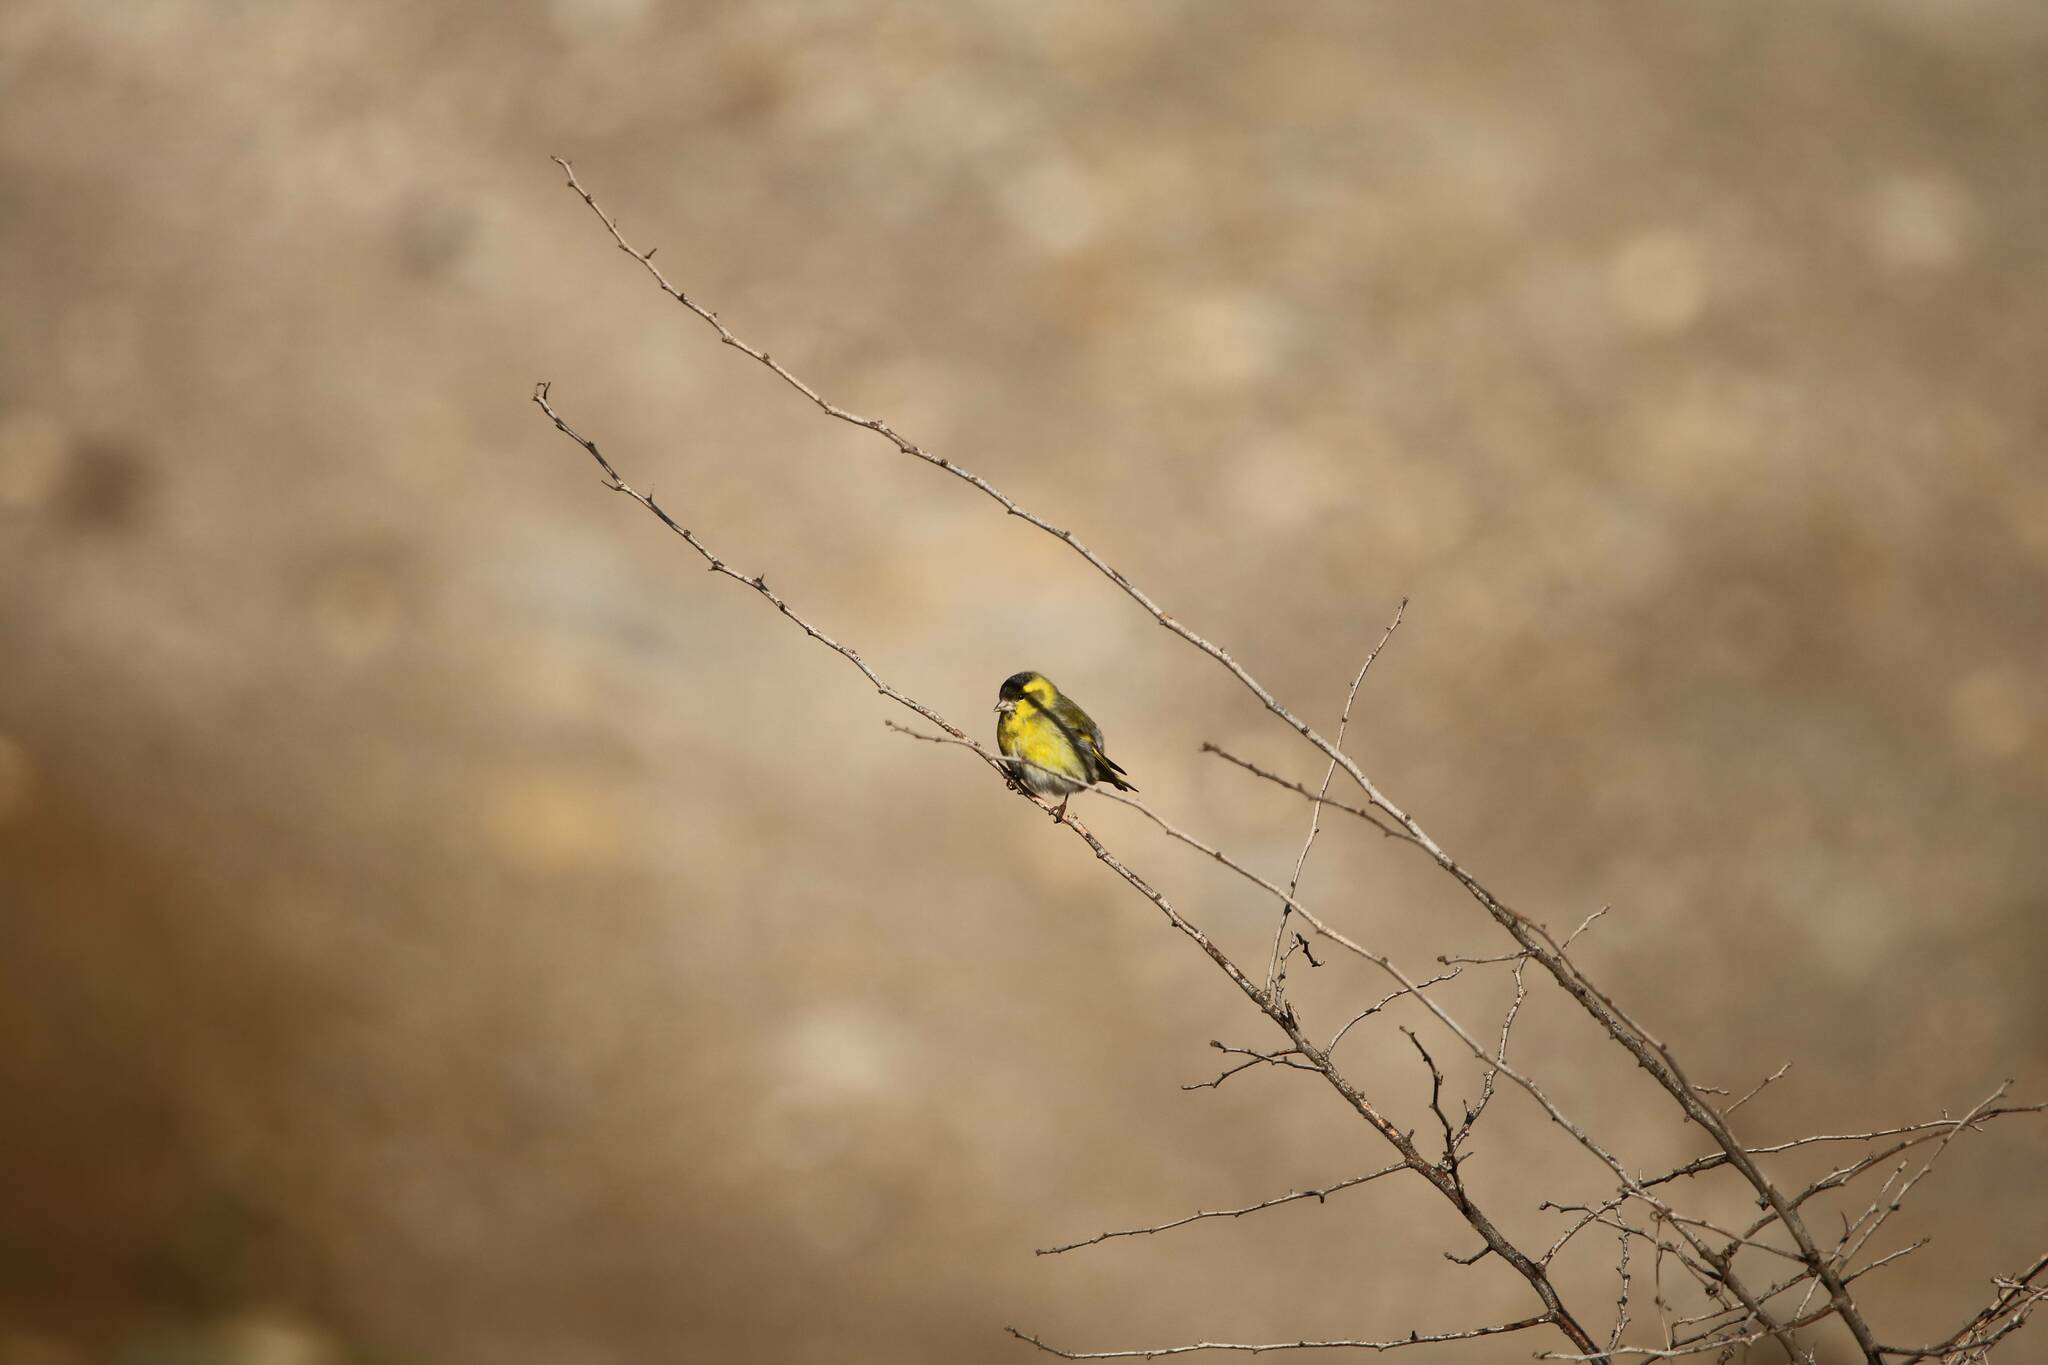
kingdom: Animalia
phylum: Chordata
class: Aves
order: Passeriformes
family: Fringillidae
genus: Spinus
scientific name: Spinus spinus
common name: Eurasian siskin
